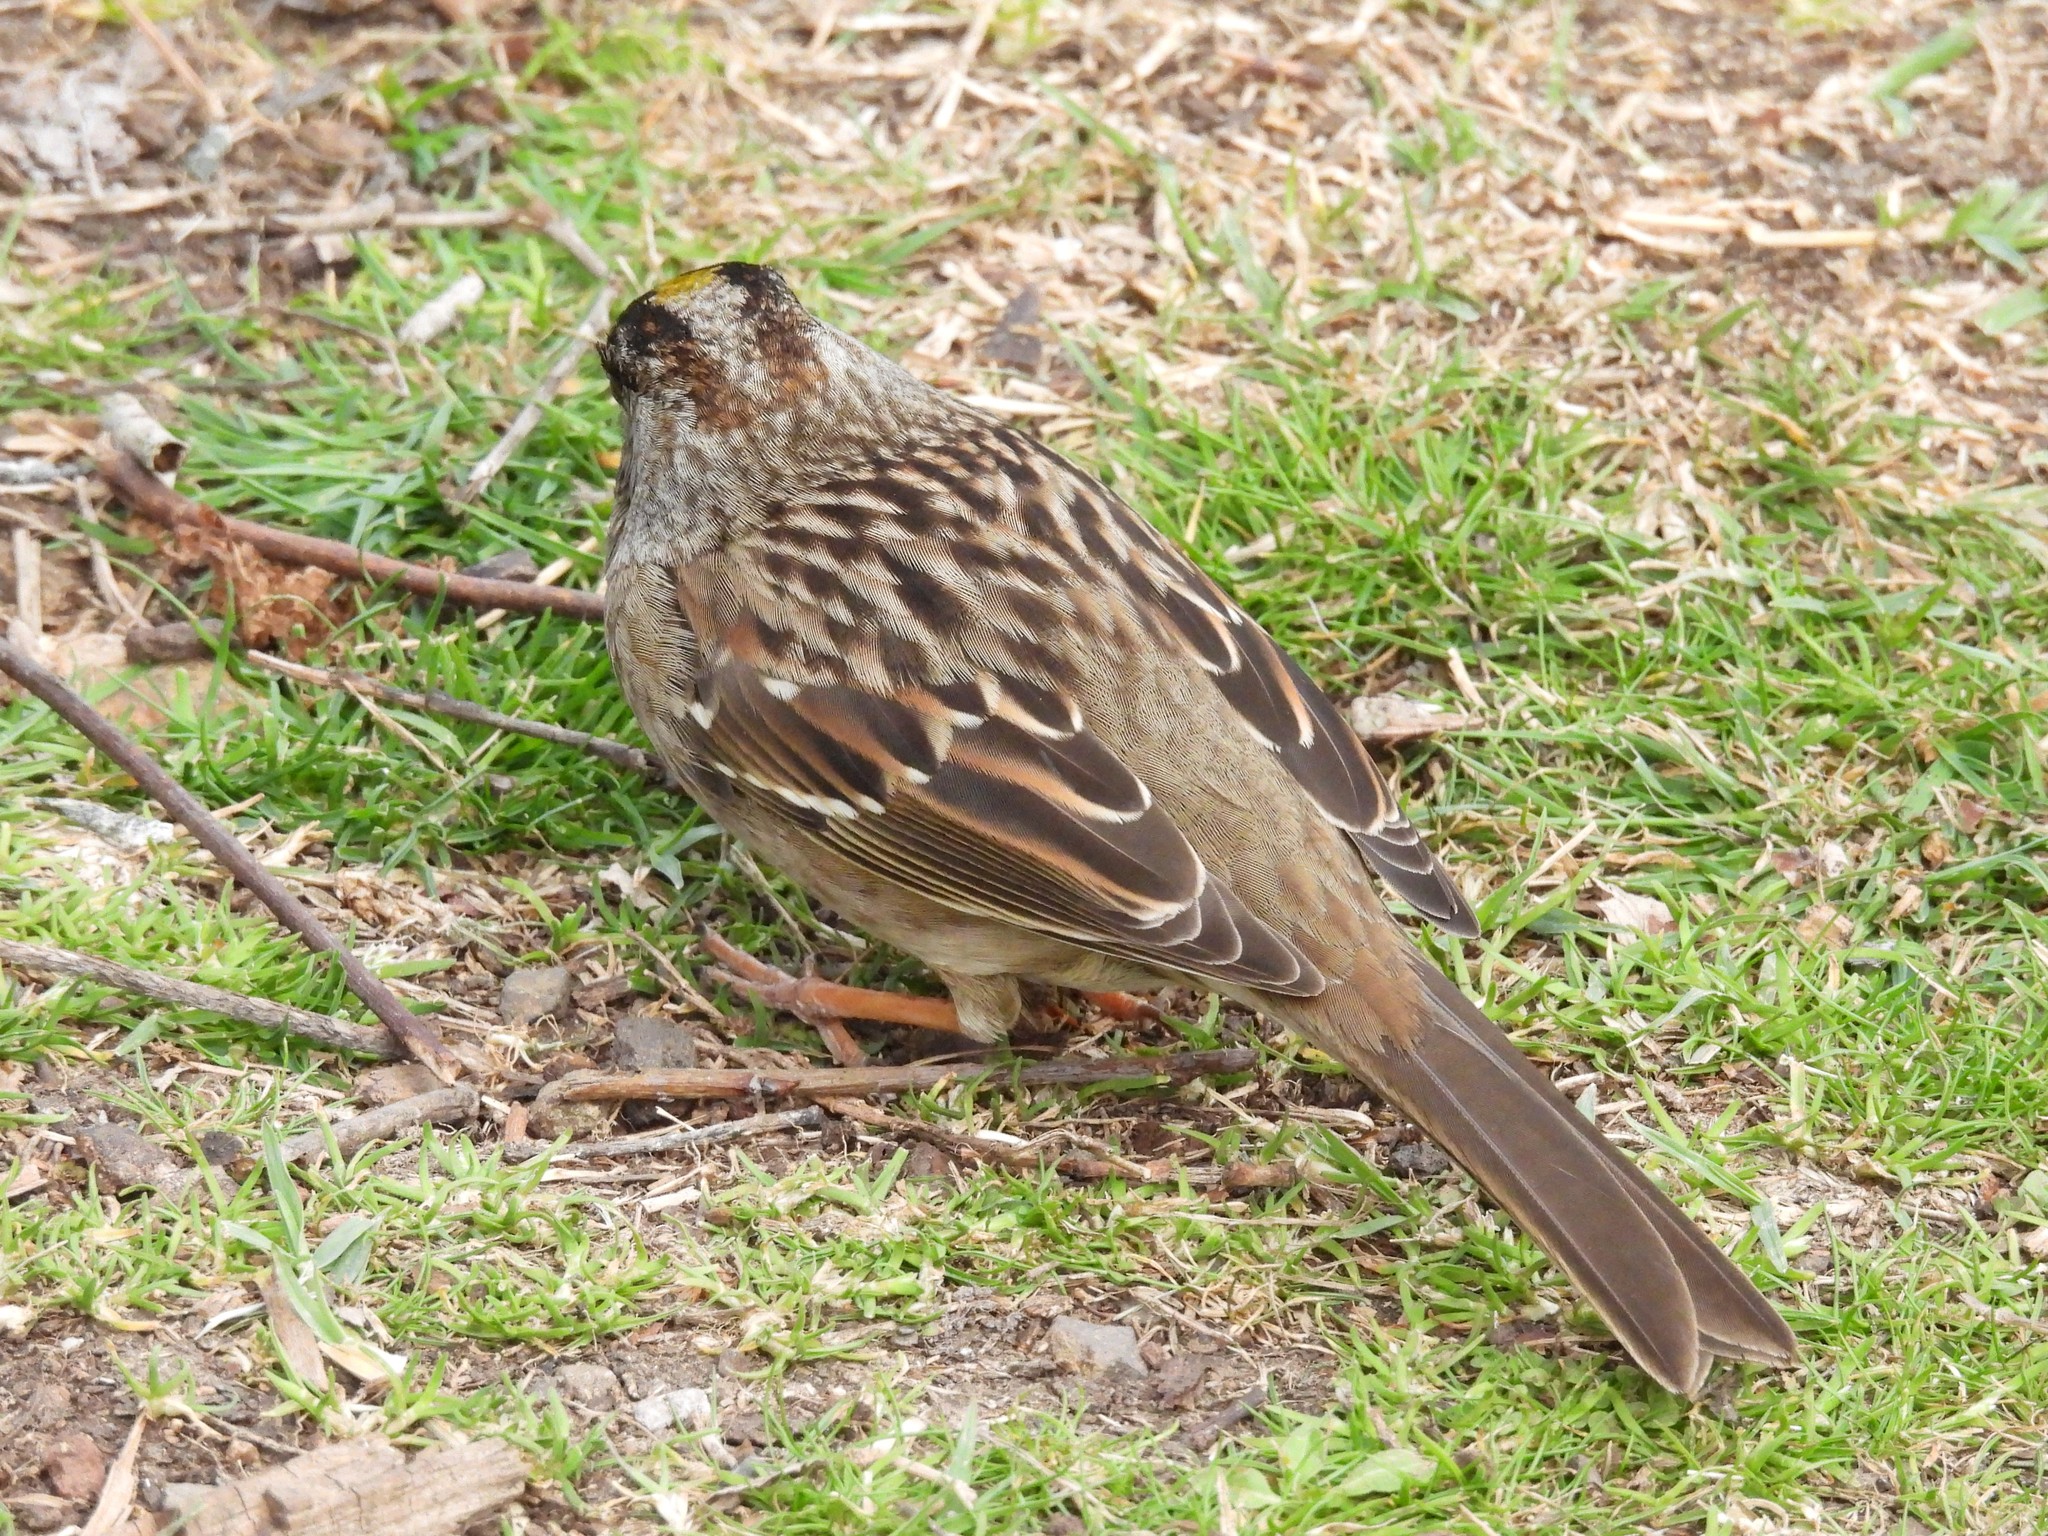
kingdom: Animalia
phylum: Chordata
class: Aves
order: Passeriformes
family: Passerellidae
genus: Zonotrichia
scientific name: Zonotrichia atricapilla
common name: Golden-crowned sparrow
